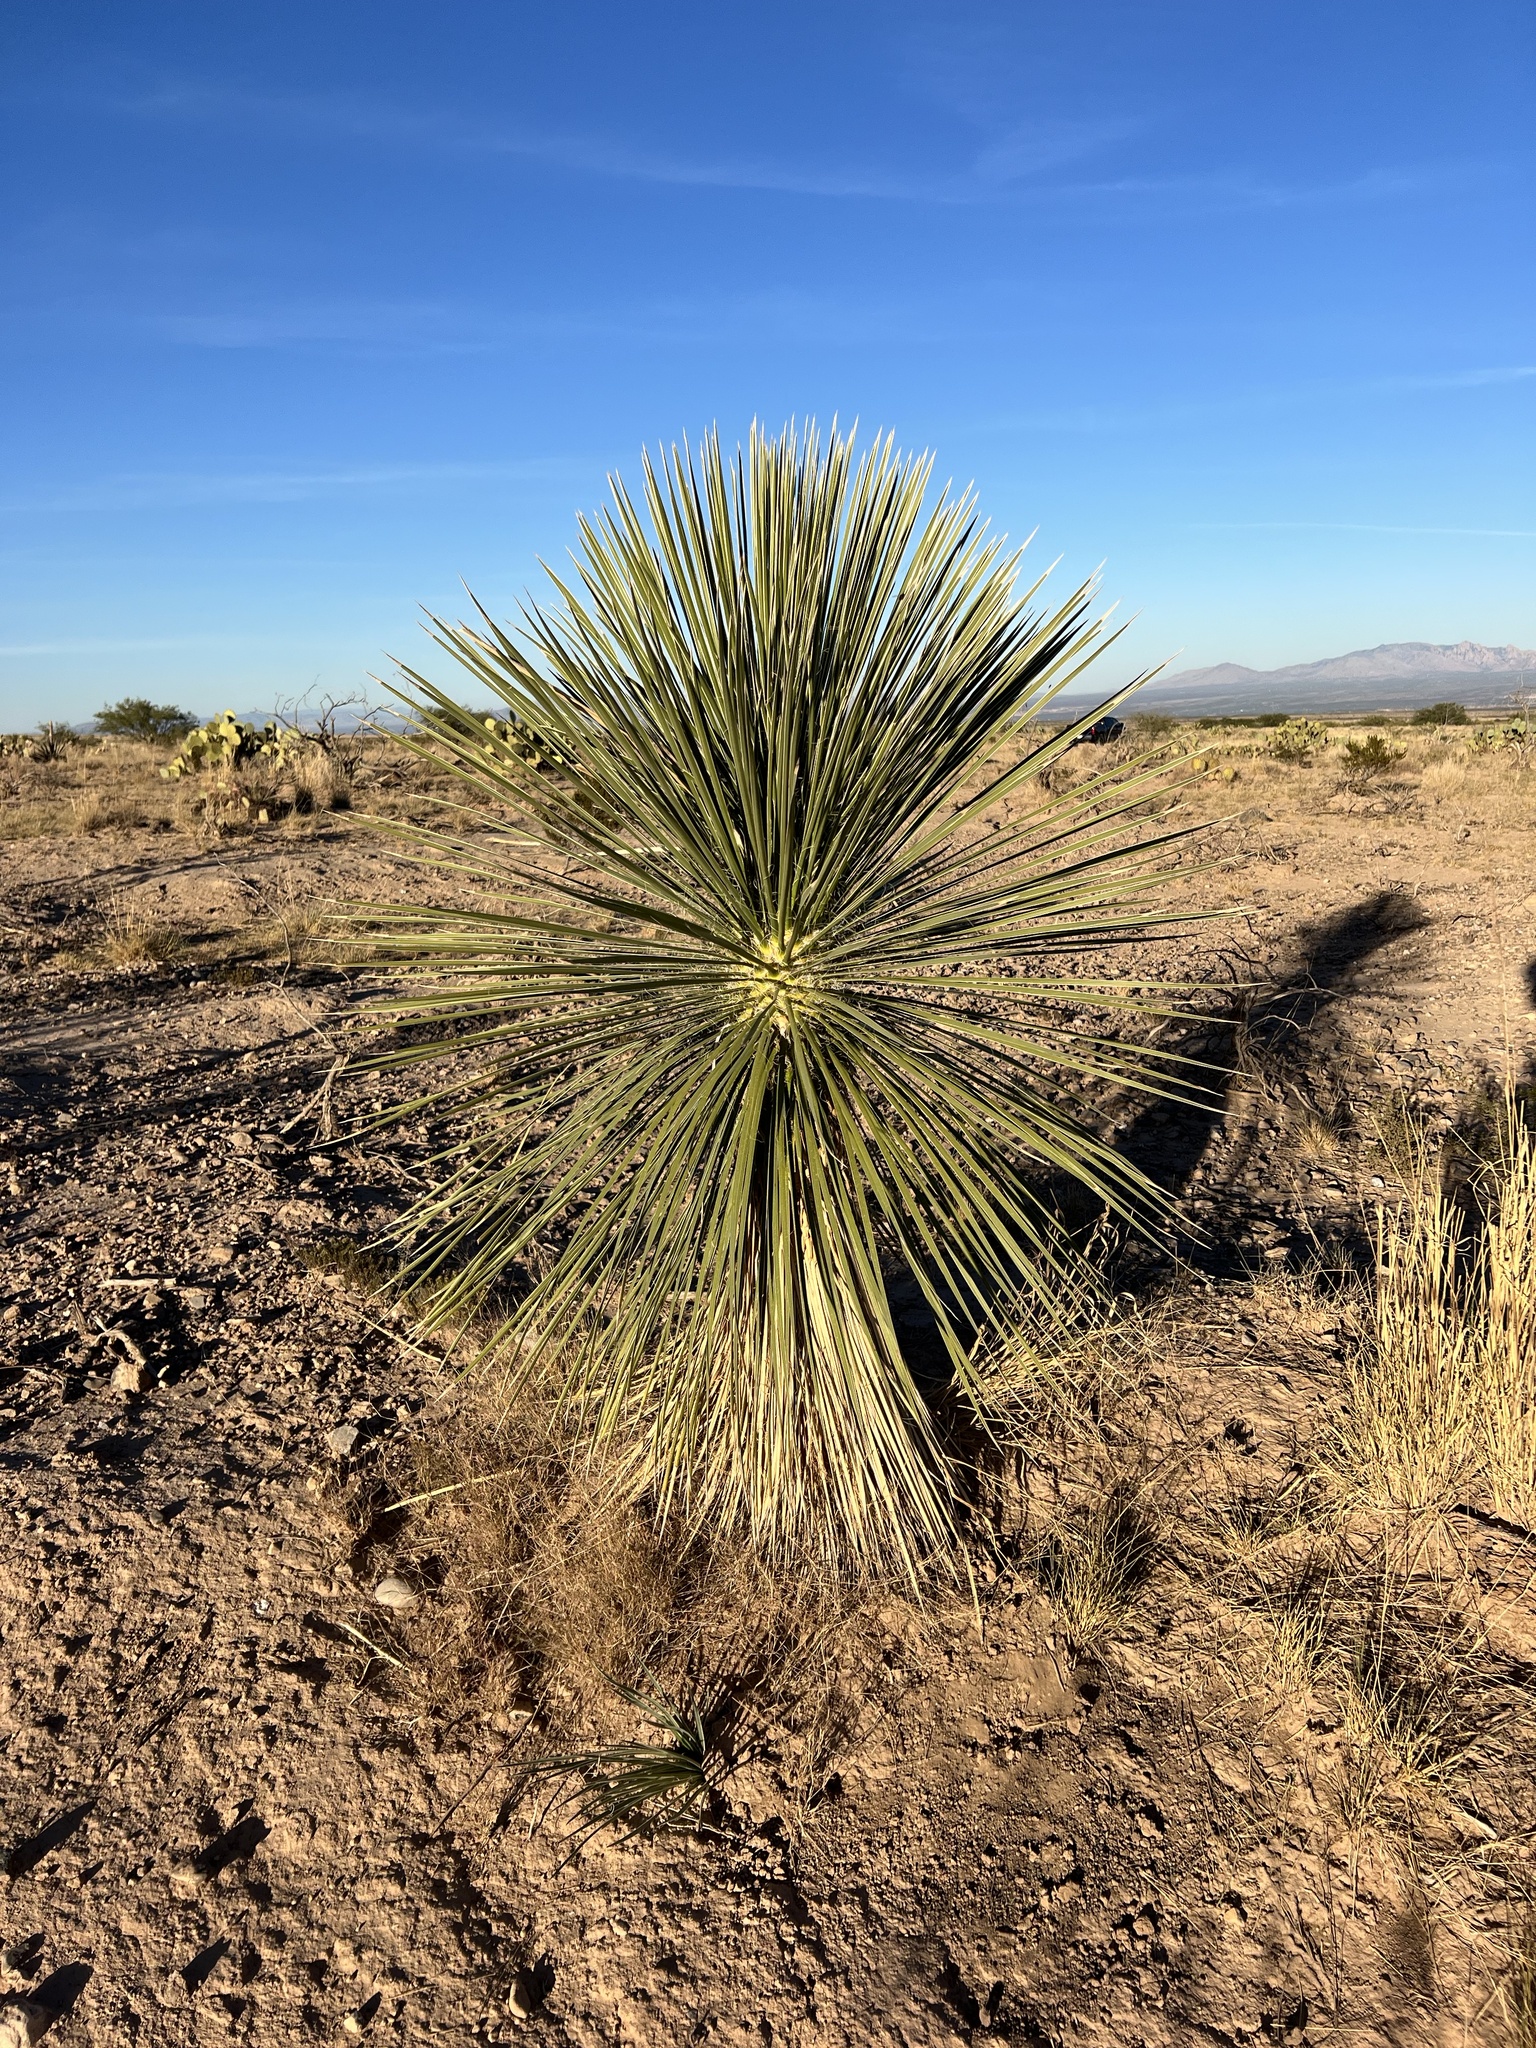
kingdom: Plantae
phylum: Tracheophyta
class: Liliopsida
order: Asparagales
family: Asparagaceae
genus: Yucca
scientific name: Yucca elata
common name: Palmella
